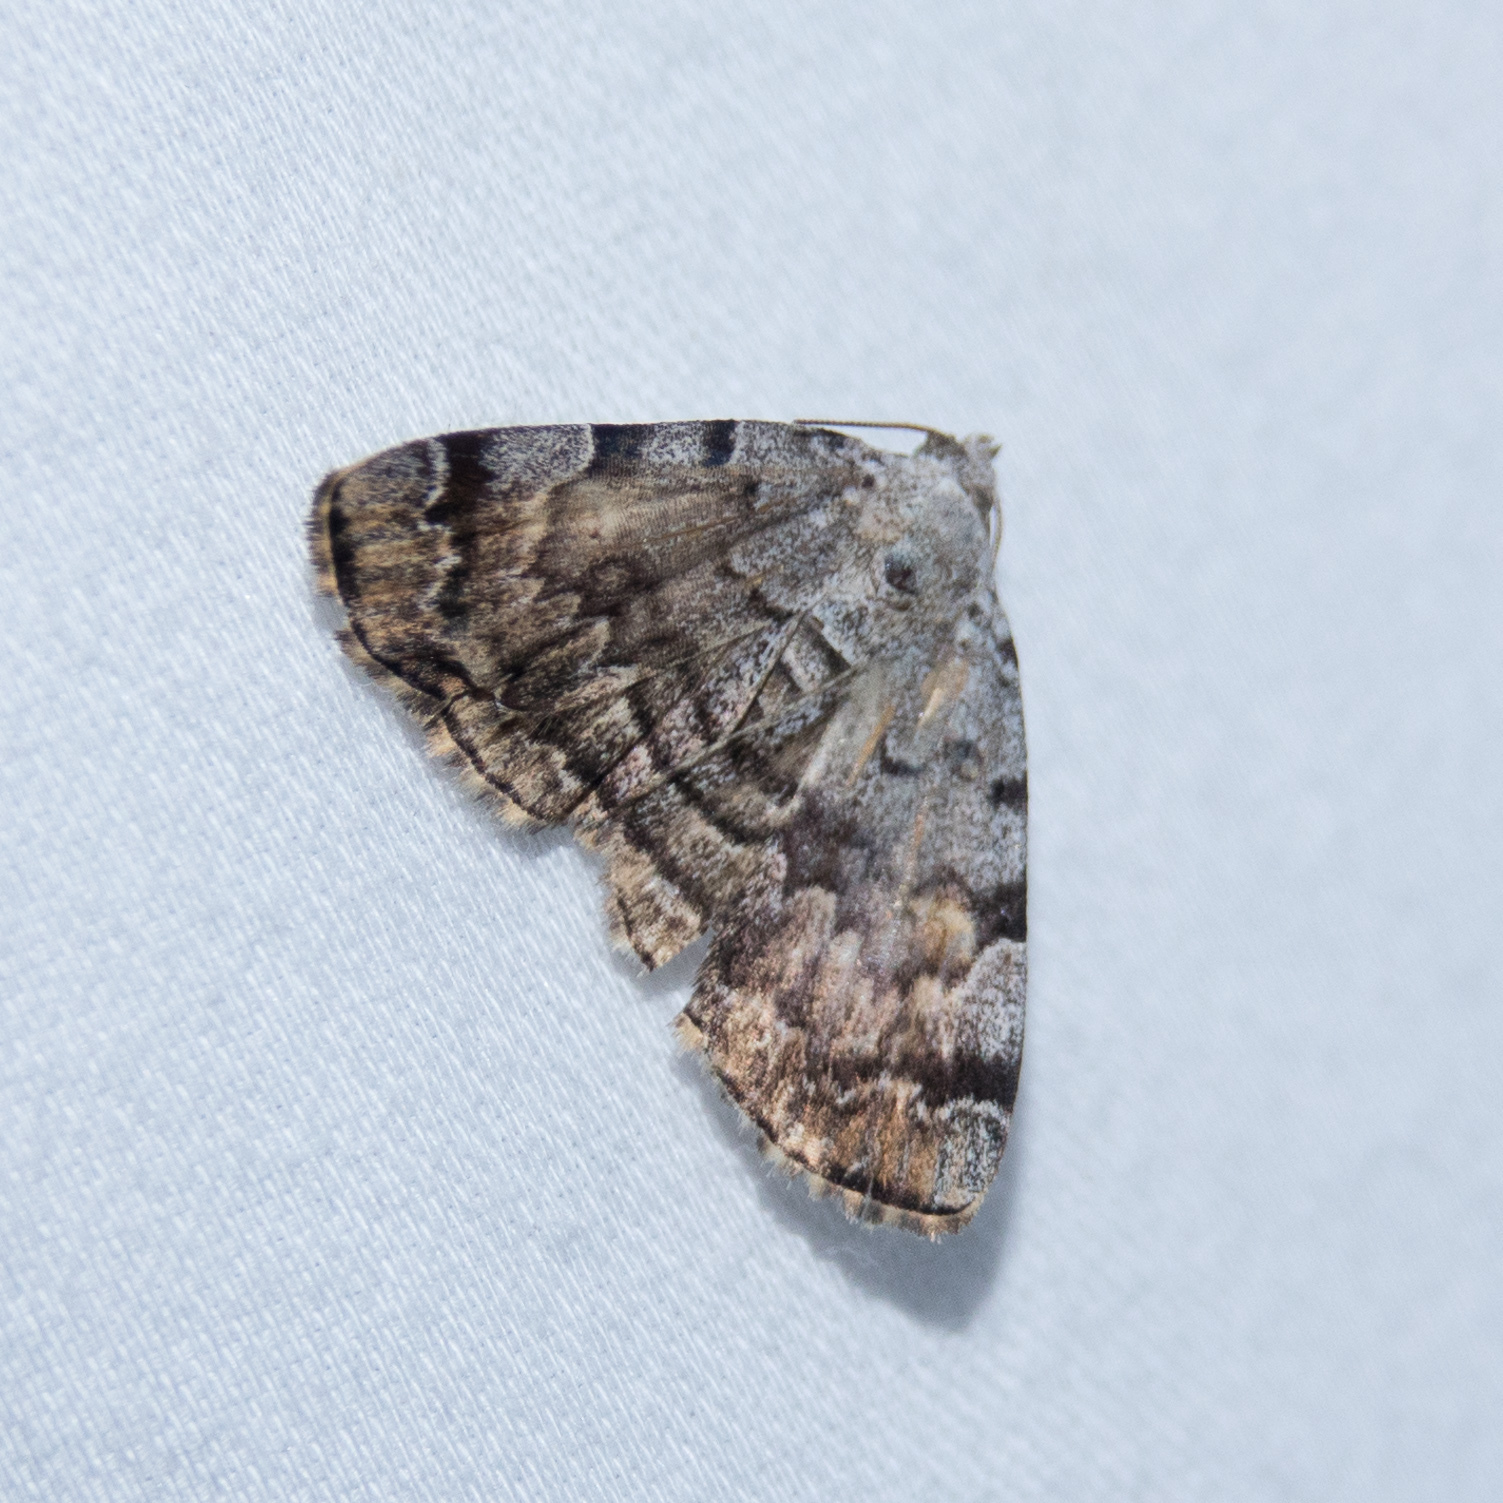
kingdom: Animalia
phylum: Arthropoda
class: Insecta
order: Lepidoptera
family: Erebidae
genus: Idia
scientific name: Idia americalis
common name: American idia moth
